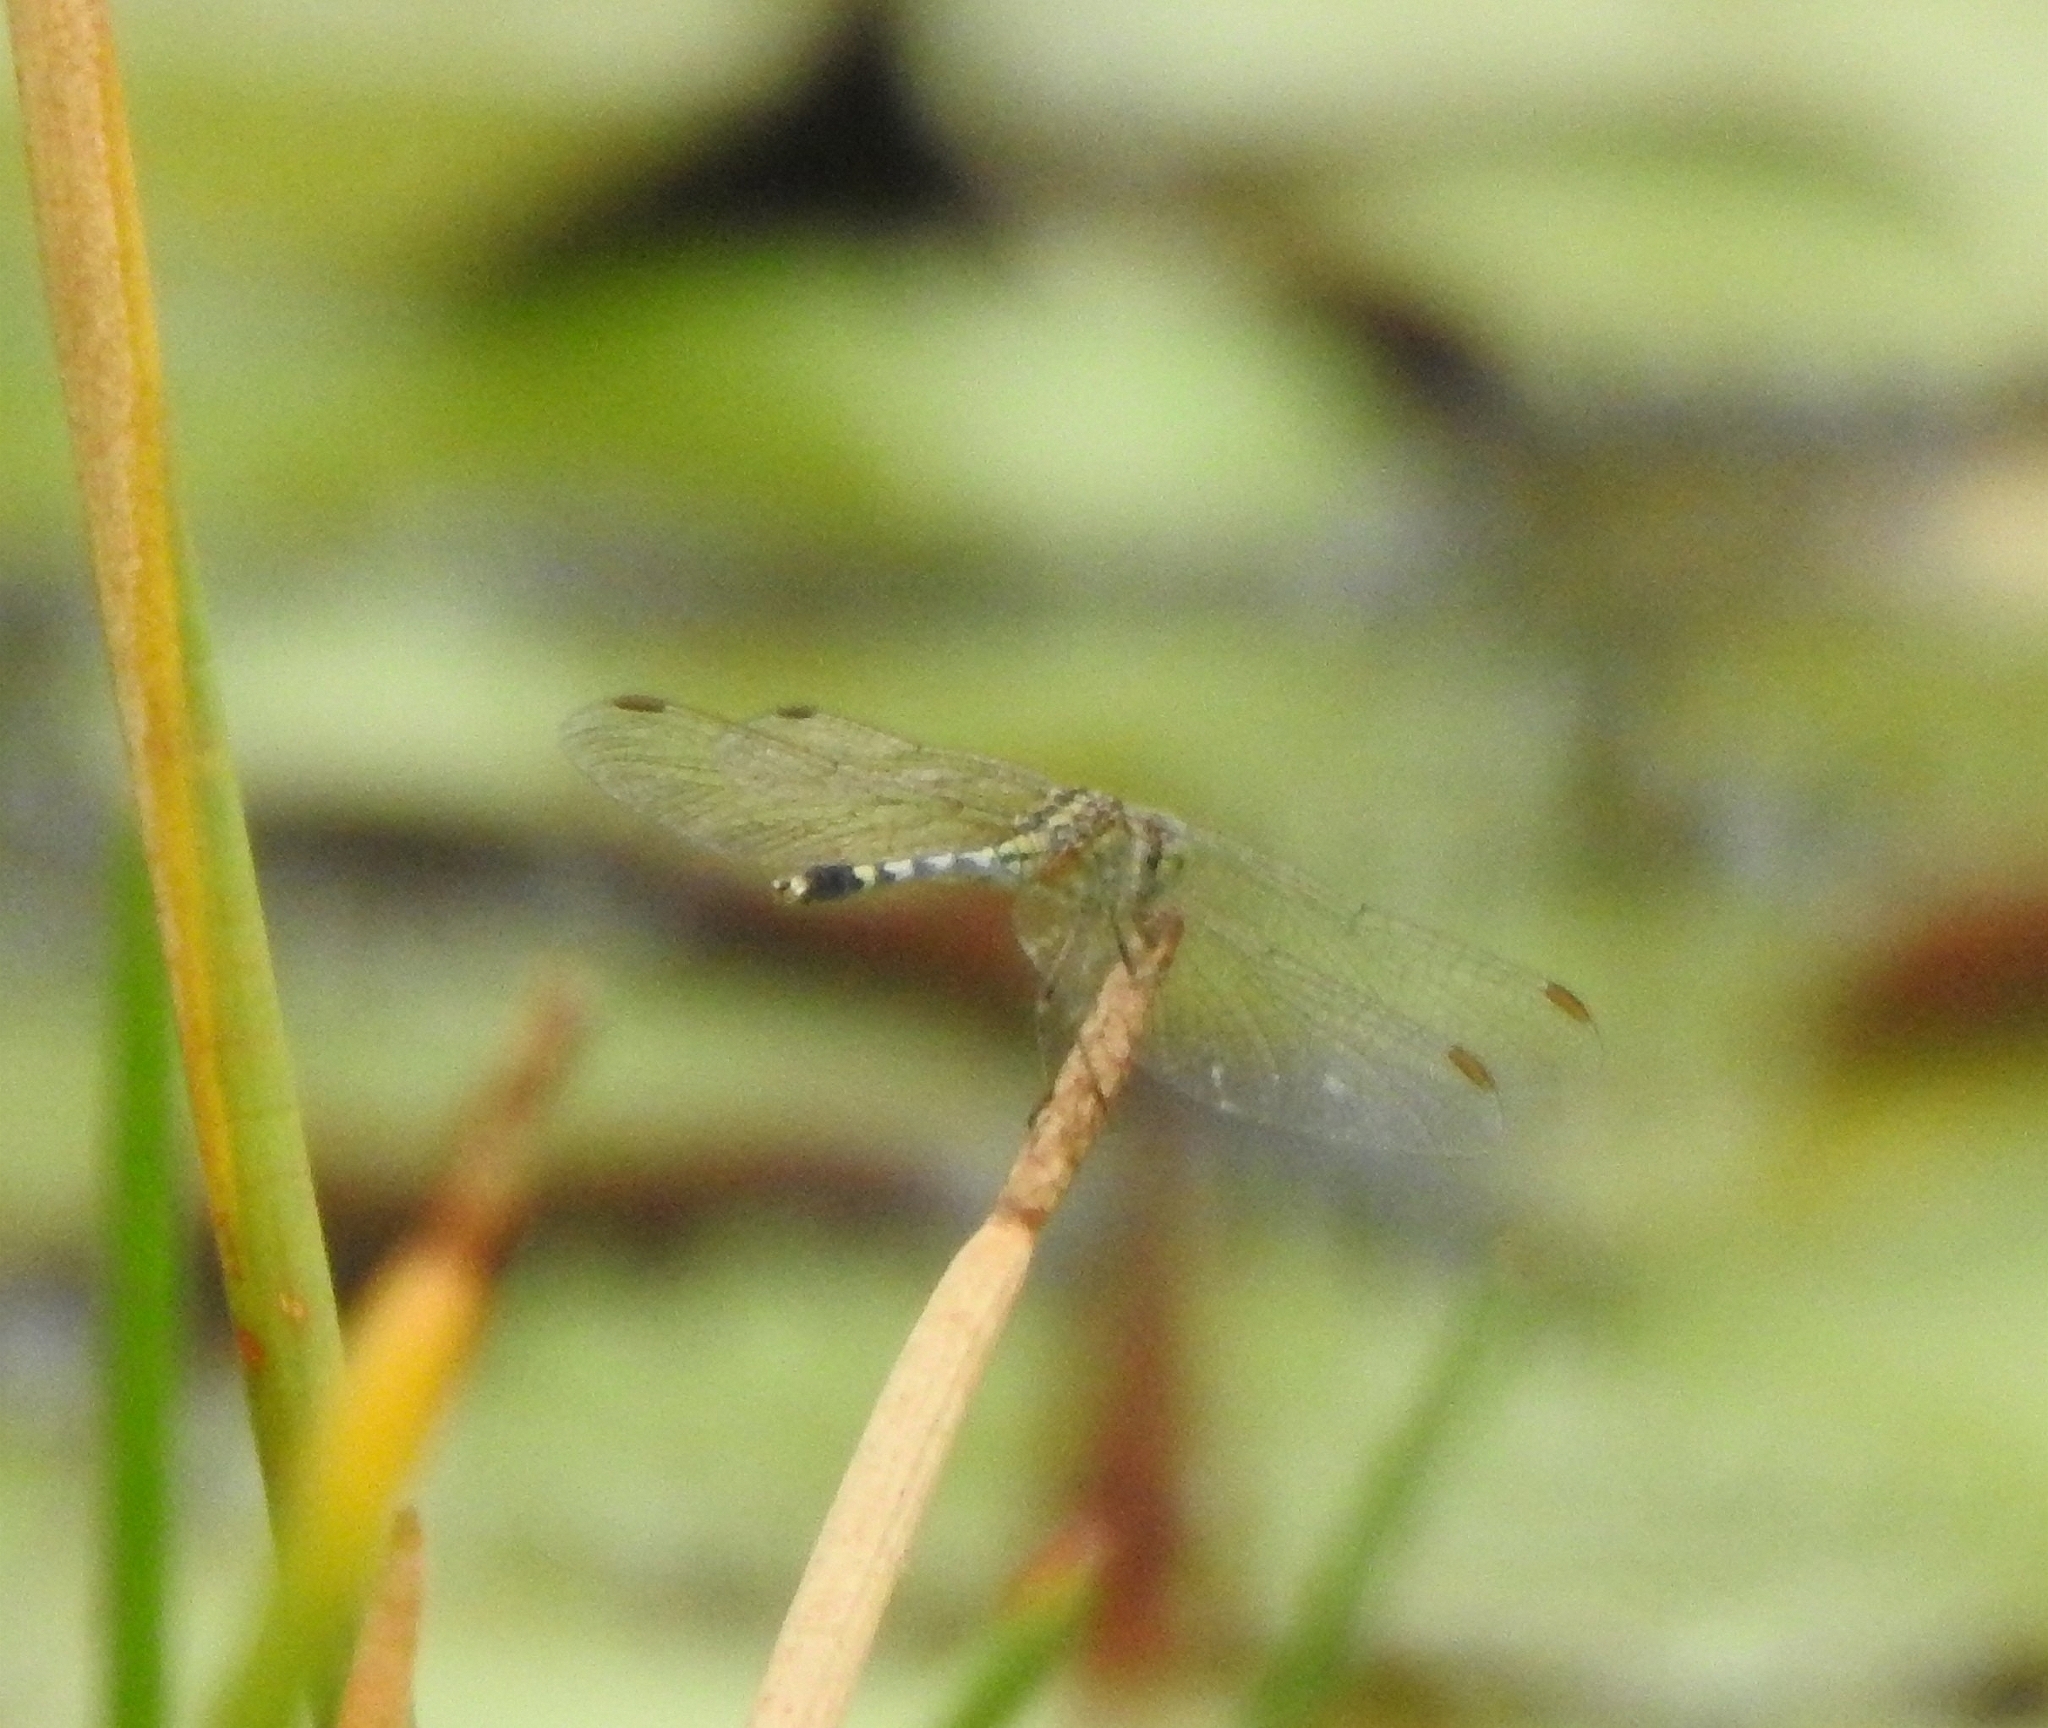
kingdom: Animalia
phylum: Arthropoda
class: Insecta
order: Odonata
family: Libellulidae
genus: Diplacodes
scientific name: Diplacodes trivialis
